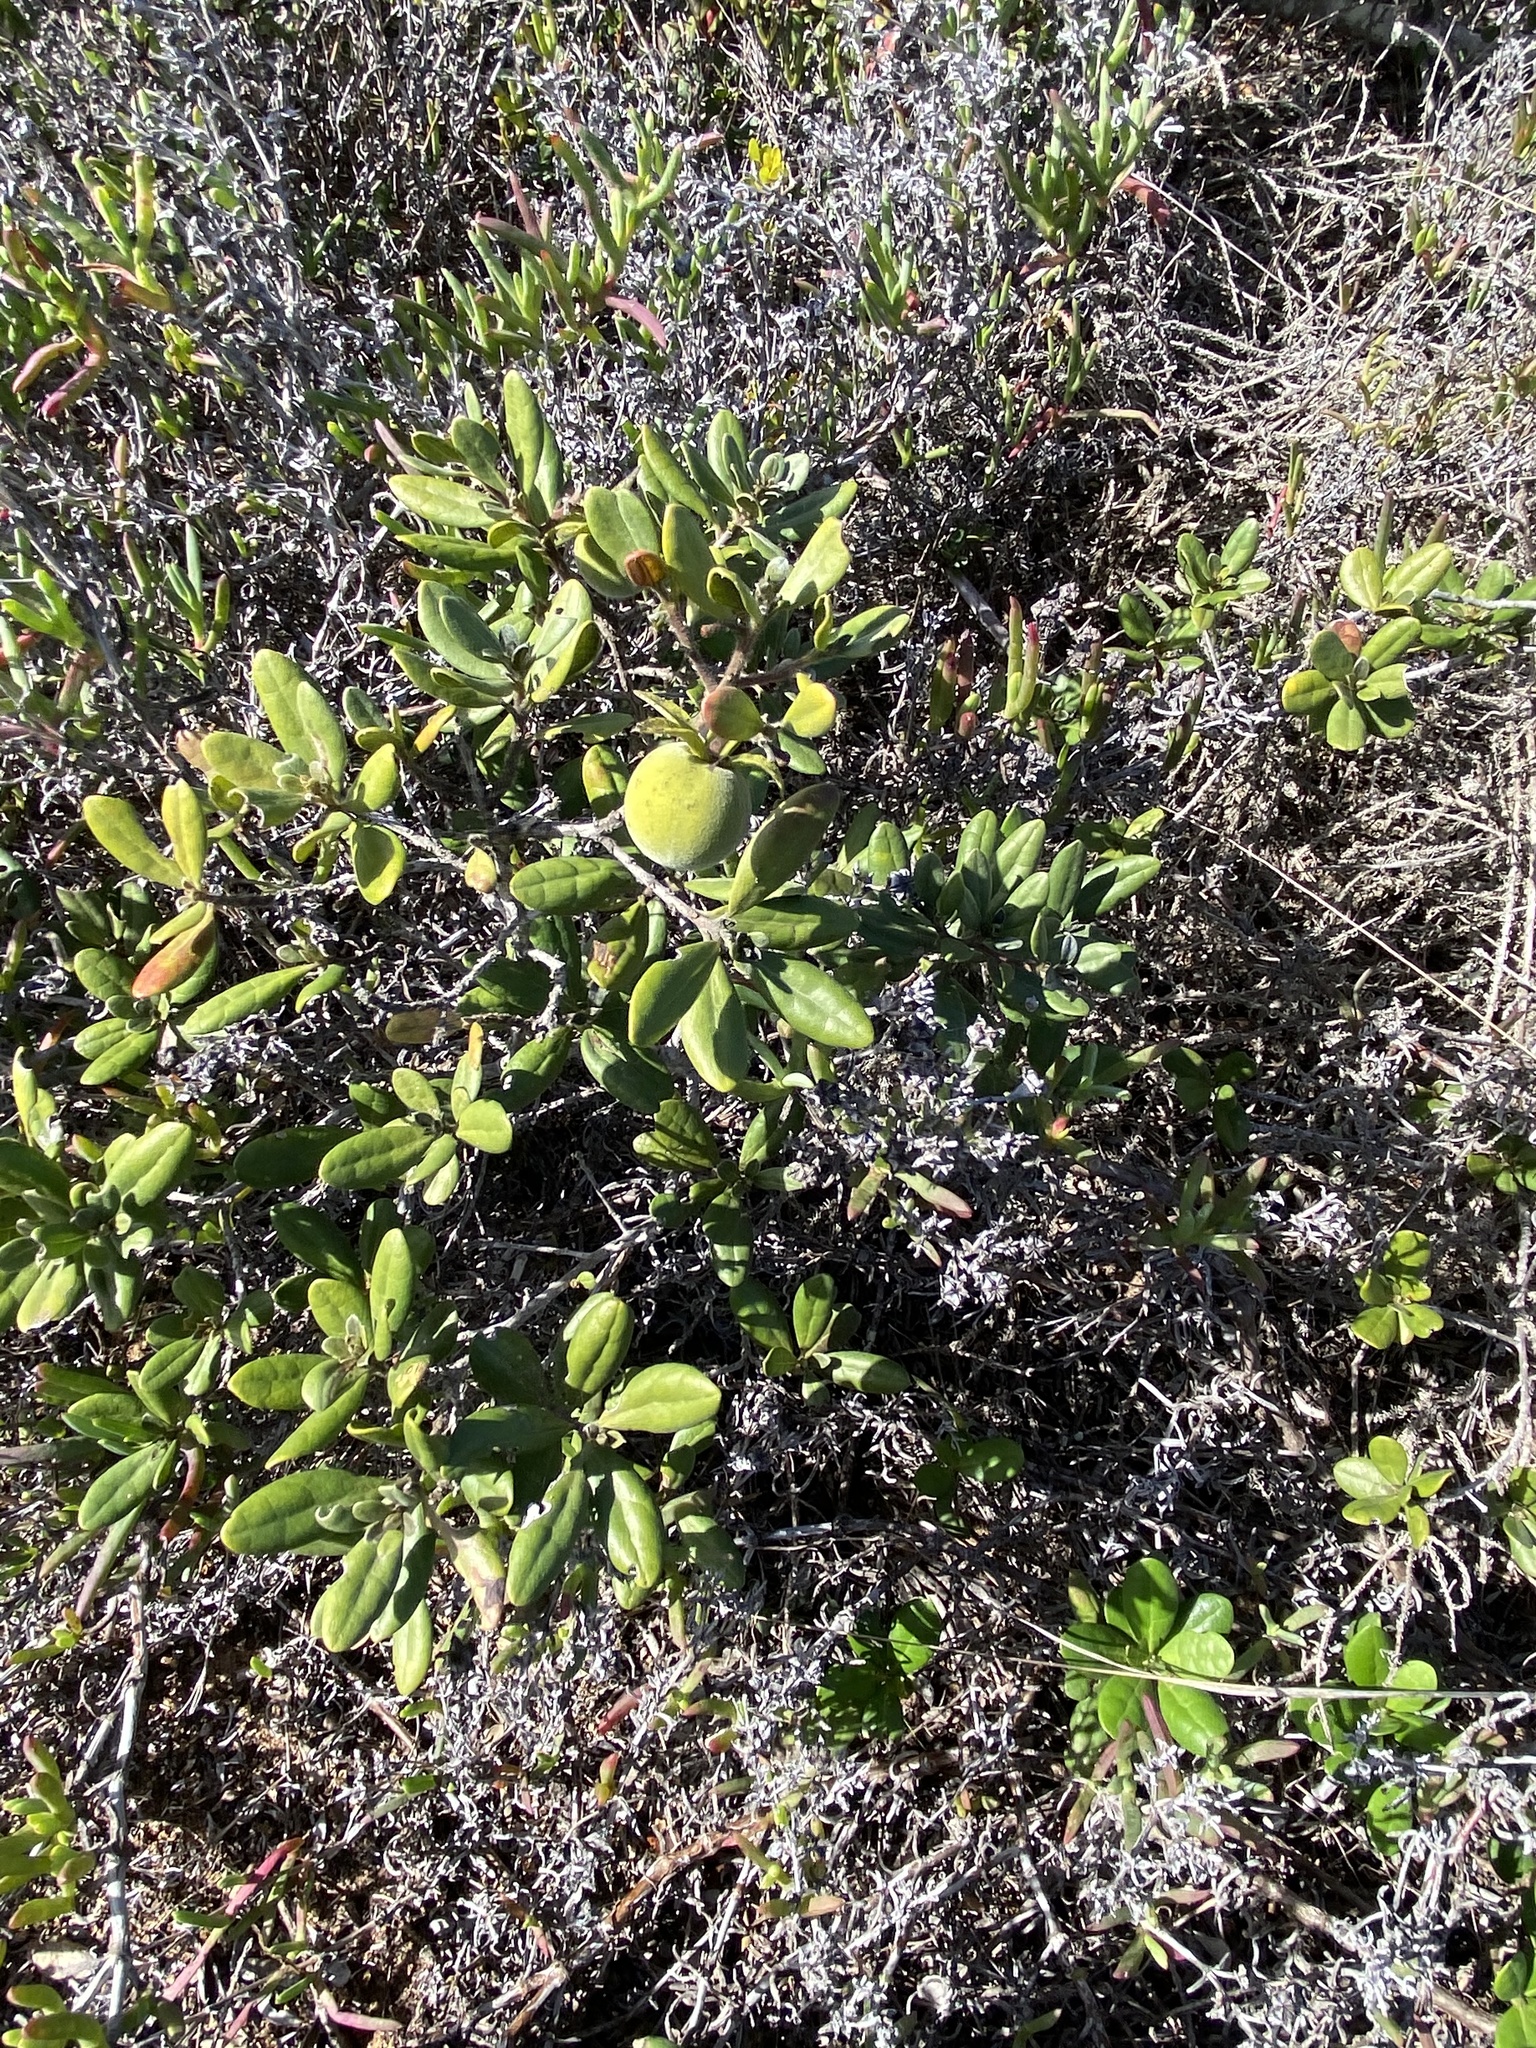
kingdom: Plantae
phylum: Tracheophyta
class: Magnoliopsida
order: Ericales
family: Ebenaceae
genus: Diospyros
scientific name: Diospyros dichrophylla
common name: Common star-apple
